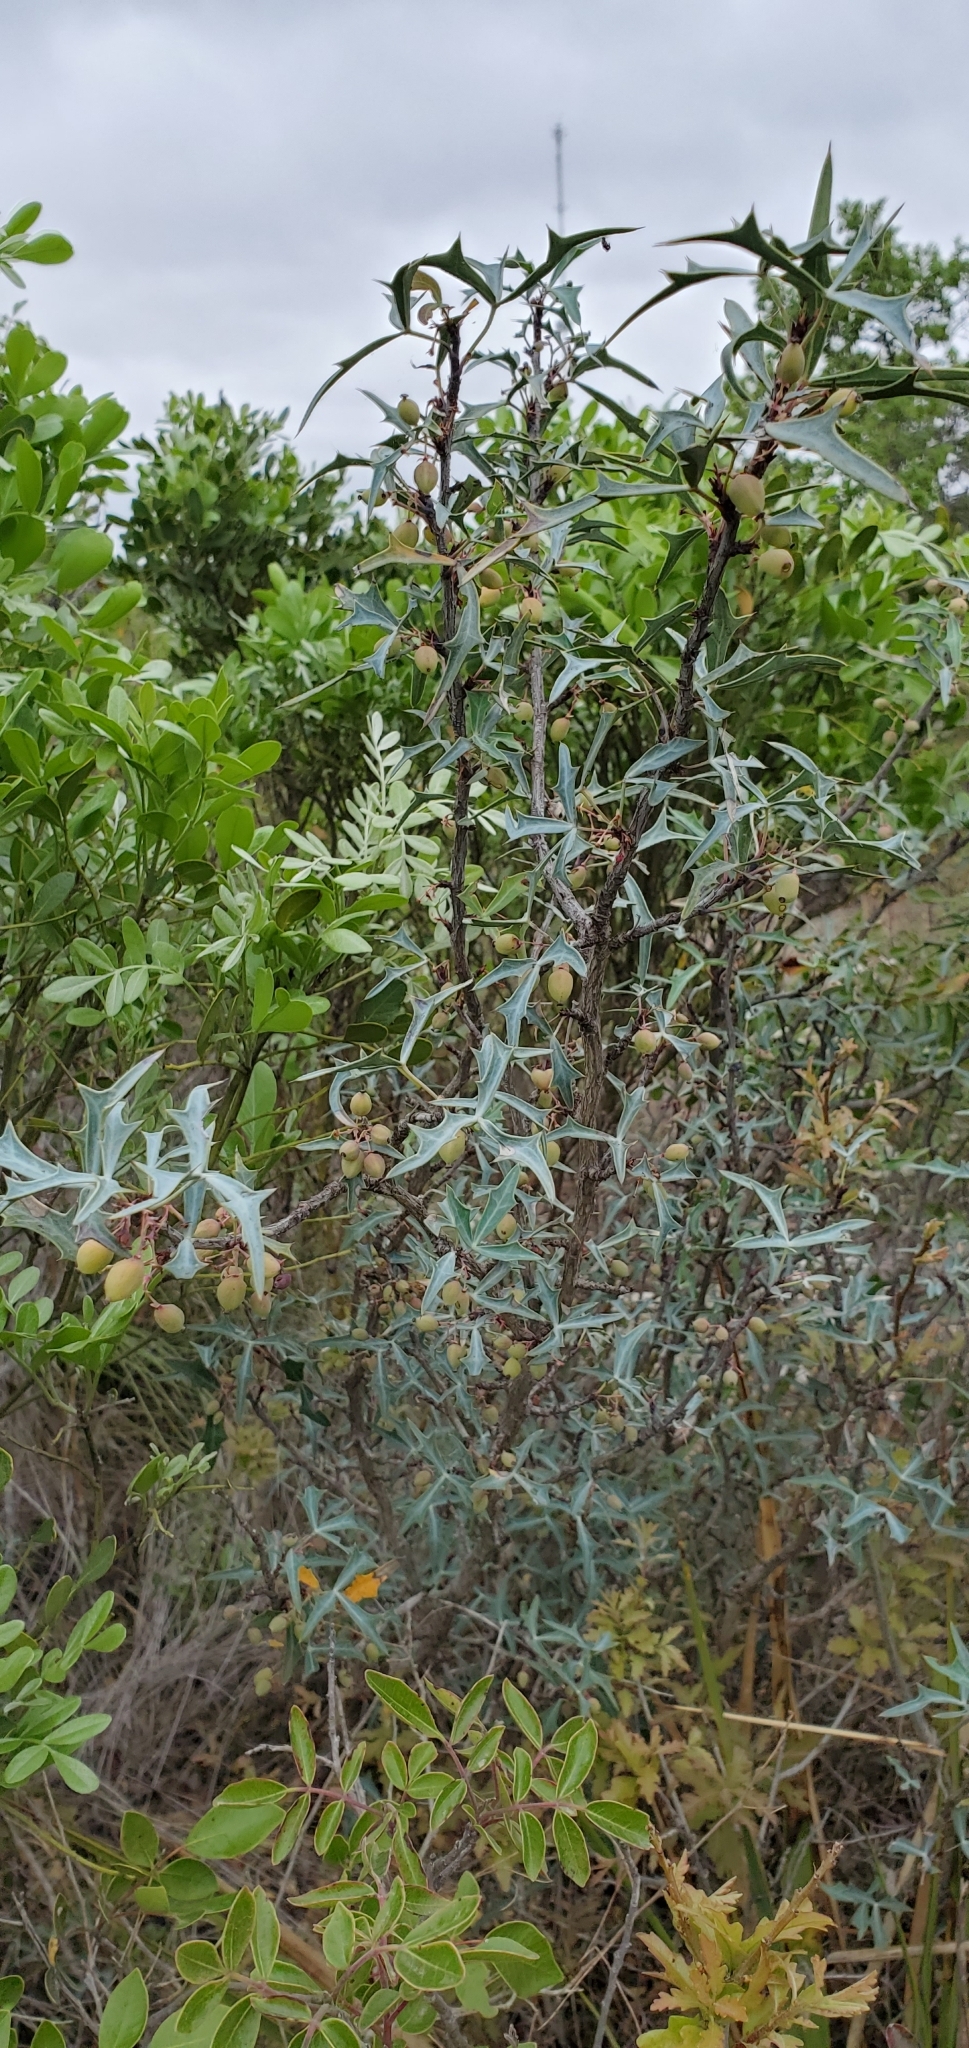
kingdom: Plantae
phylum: Tracheophyta
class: Magnoliopsida
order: Ranunculales
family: Berberidaceae
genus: Alloberberis
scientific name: Alloberberis trifoliolata
